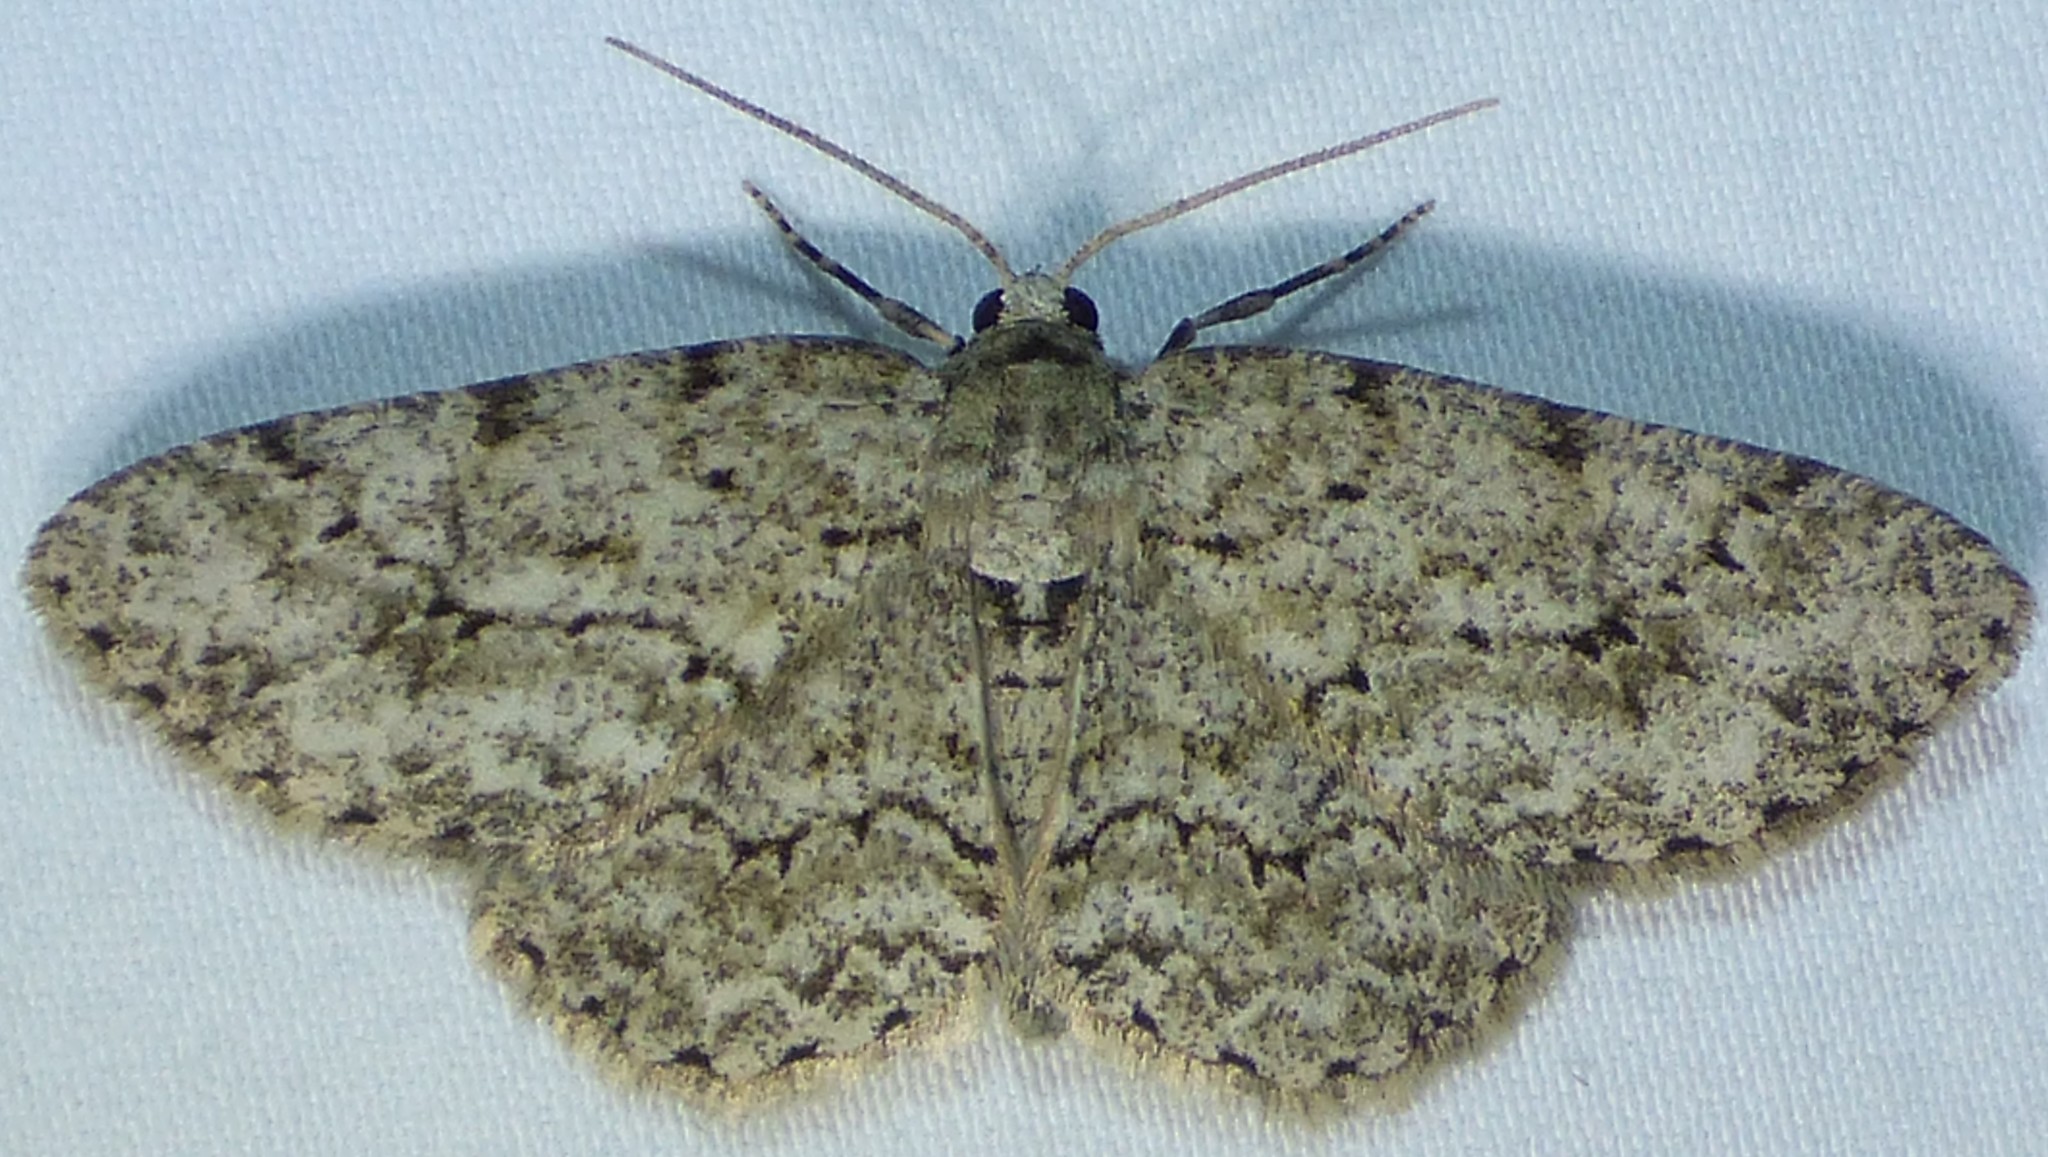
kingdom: Animalia
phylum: Arthropoda
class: Insecta
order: Lepidoptera
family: Geometridae
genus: Ectropis
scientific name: Ectropis crepuscularia
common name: Engrailed
